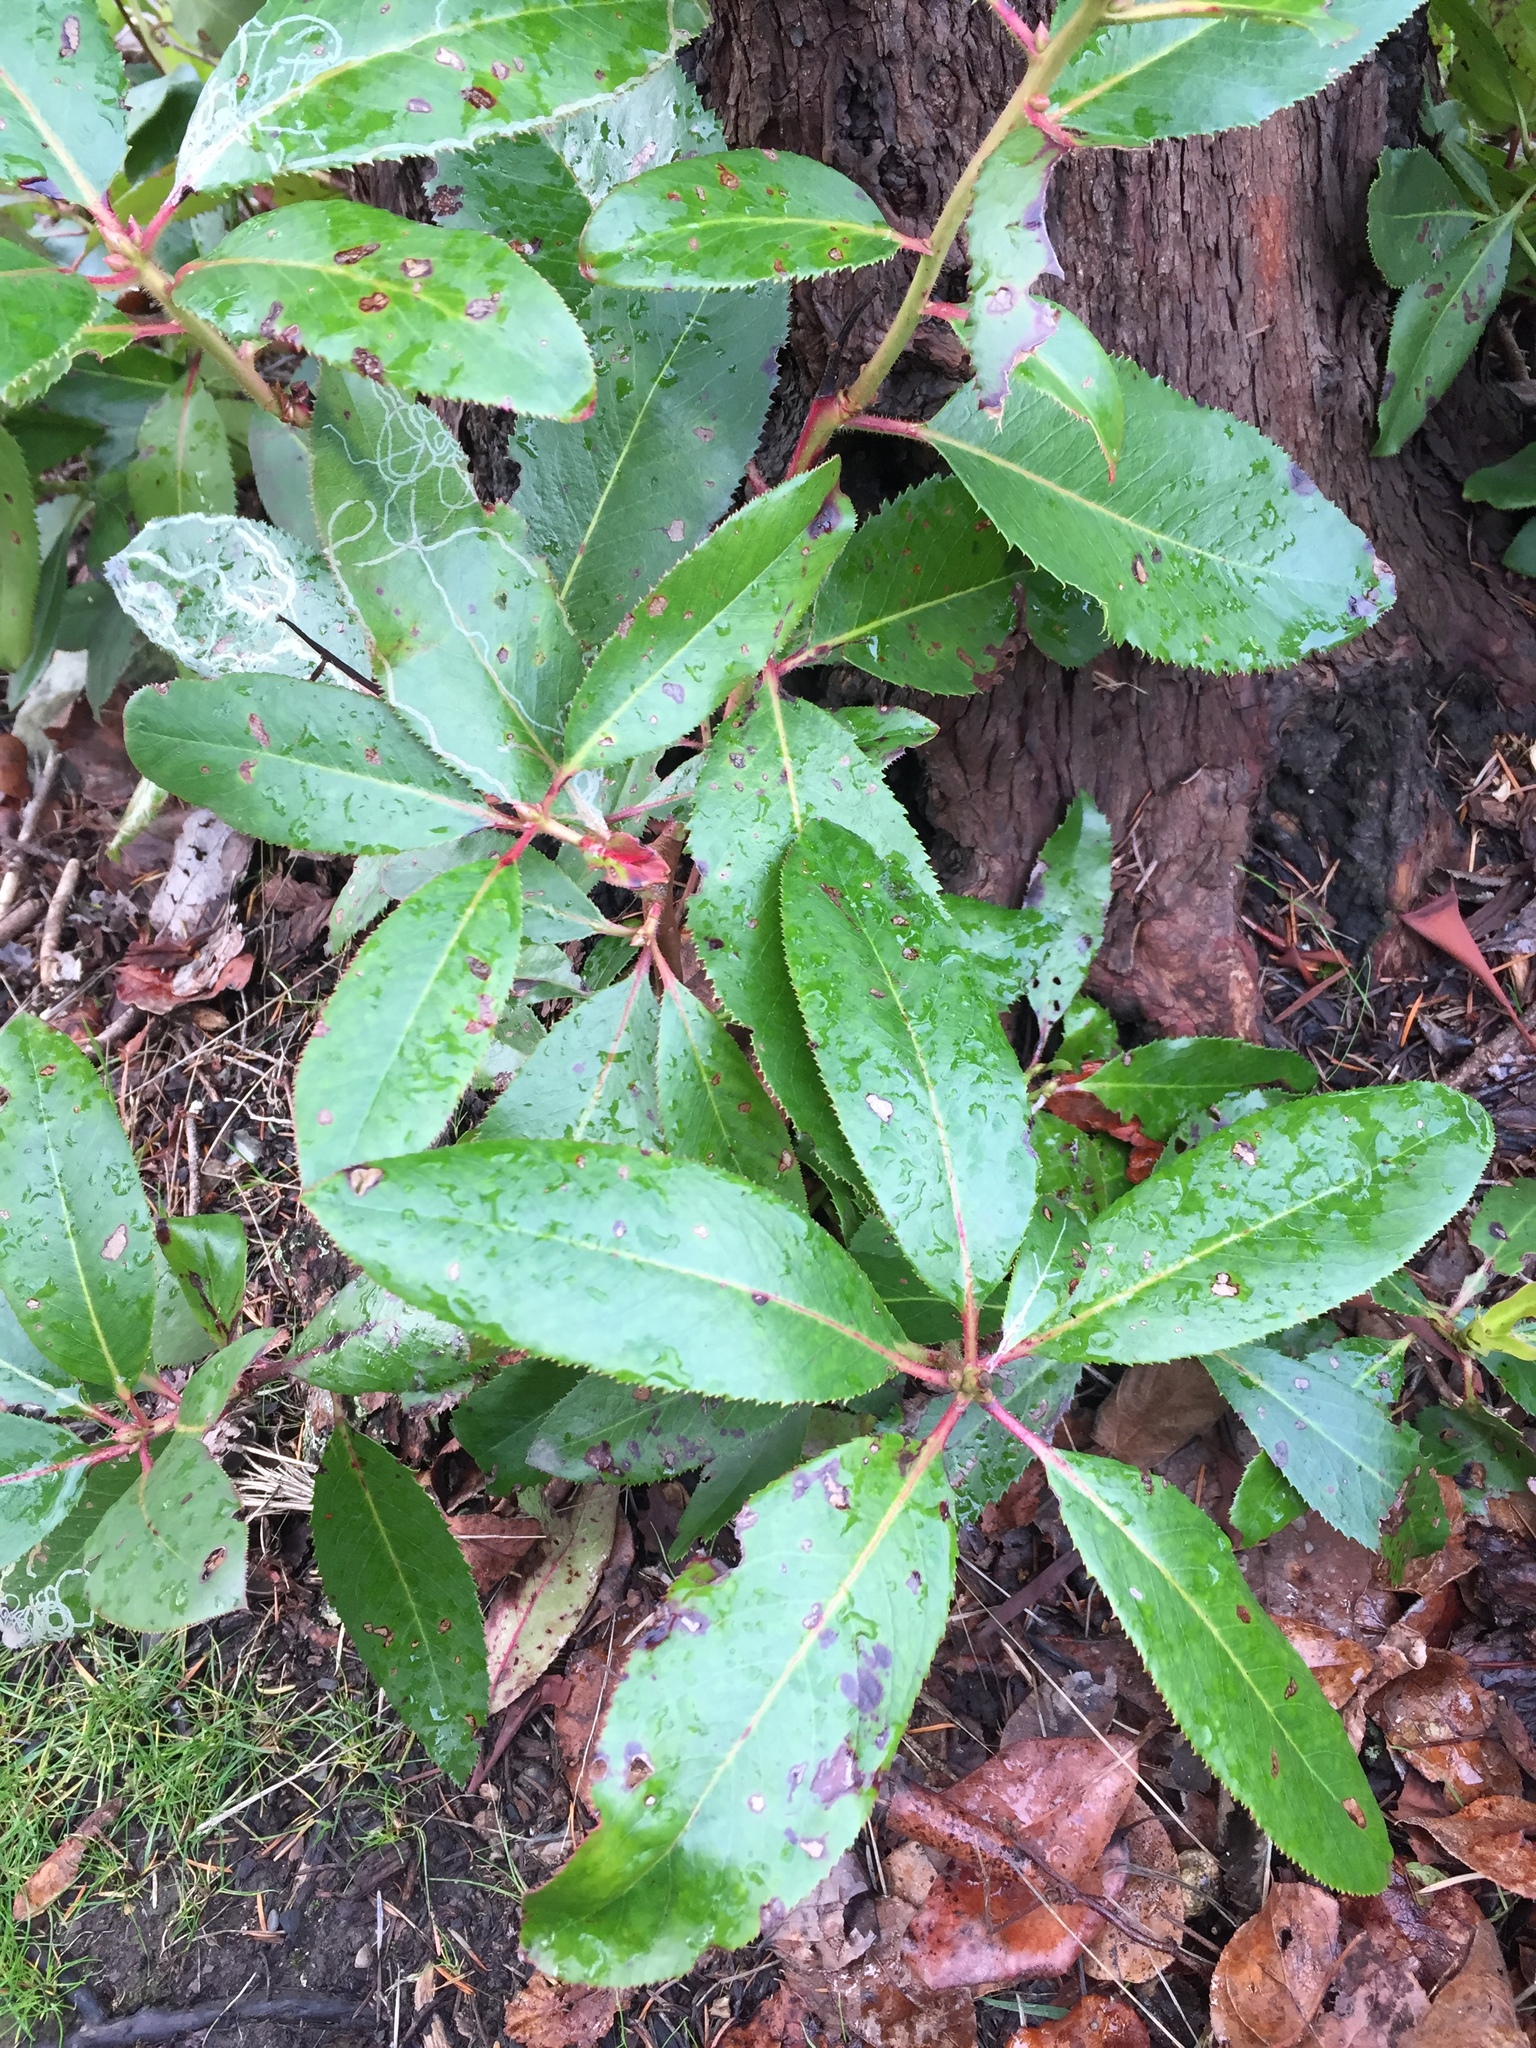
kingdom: Plantae
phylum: Tracheophyta
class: Magnoliopsida
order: Ericales
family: Ericaceae
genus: Arbutus
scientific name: Arbutus menziesii
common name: Pacific madrone
